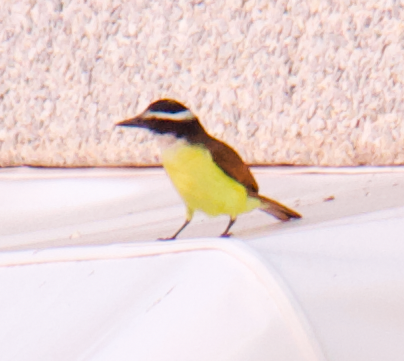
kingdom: Animalia
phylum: Chordata
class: Aves
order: Passeriformes
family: Tyrannidae
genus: Pitangus
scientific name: Pitangus sulphuratus
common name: Great kiskadee
